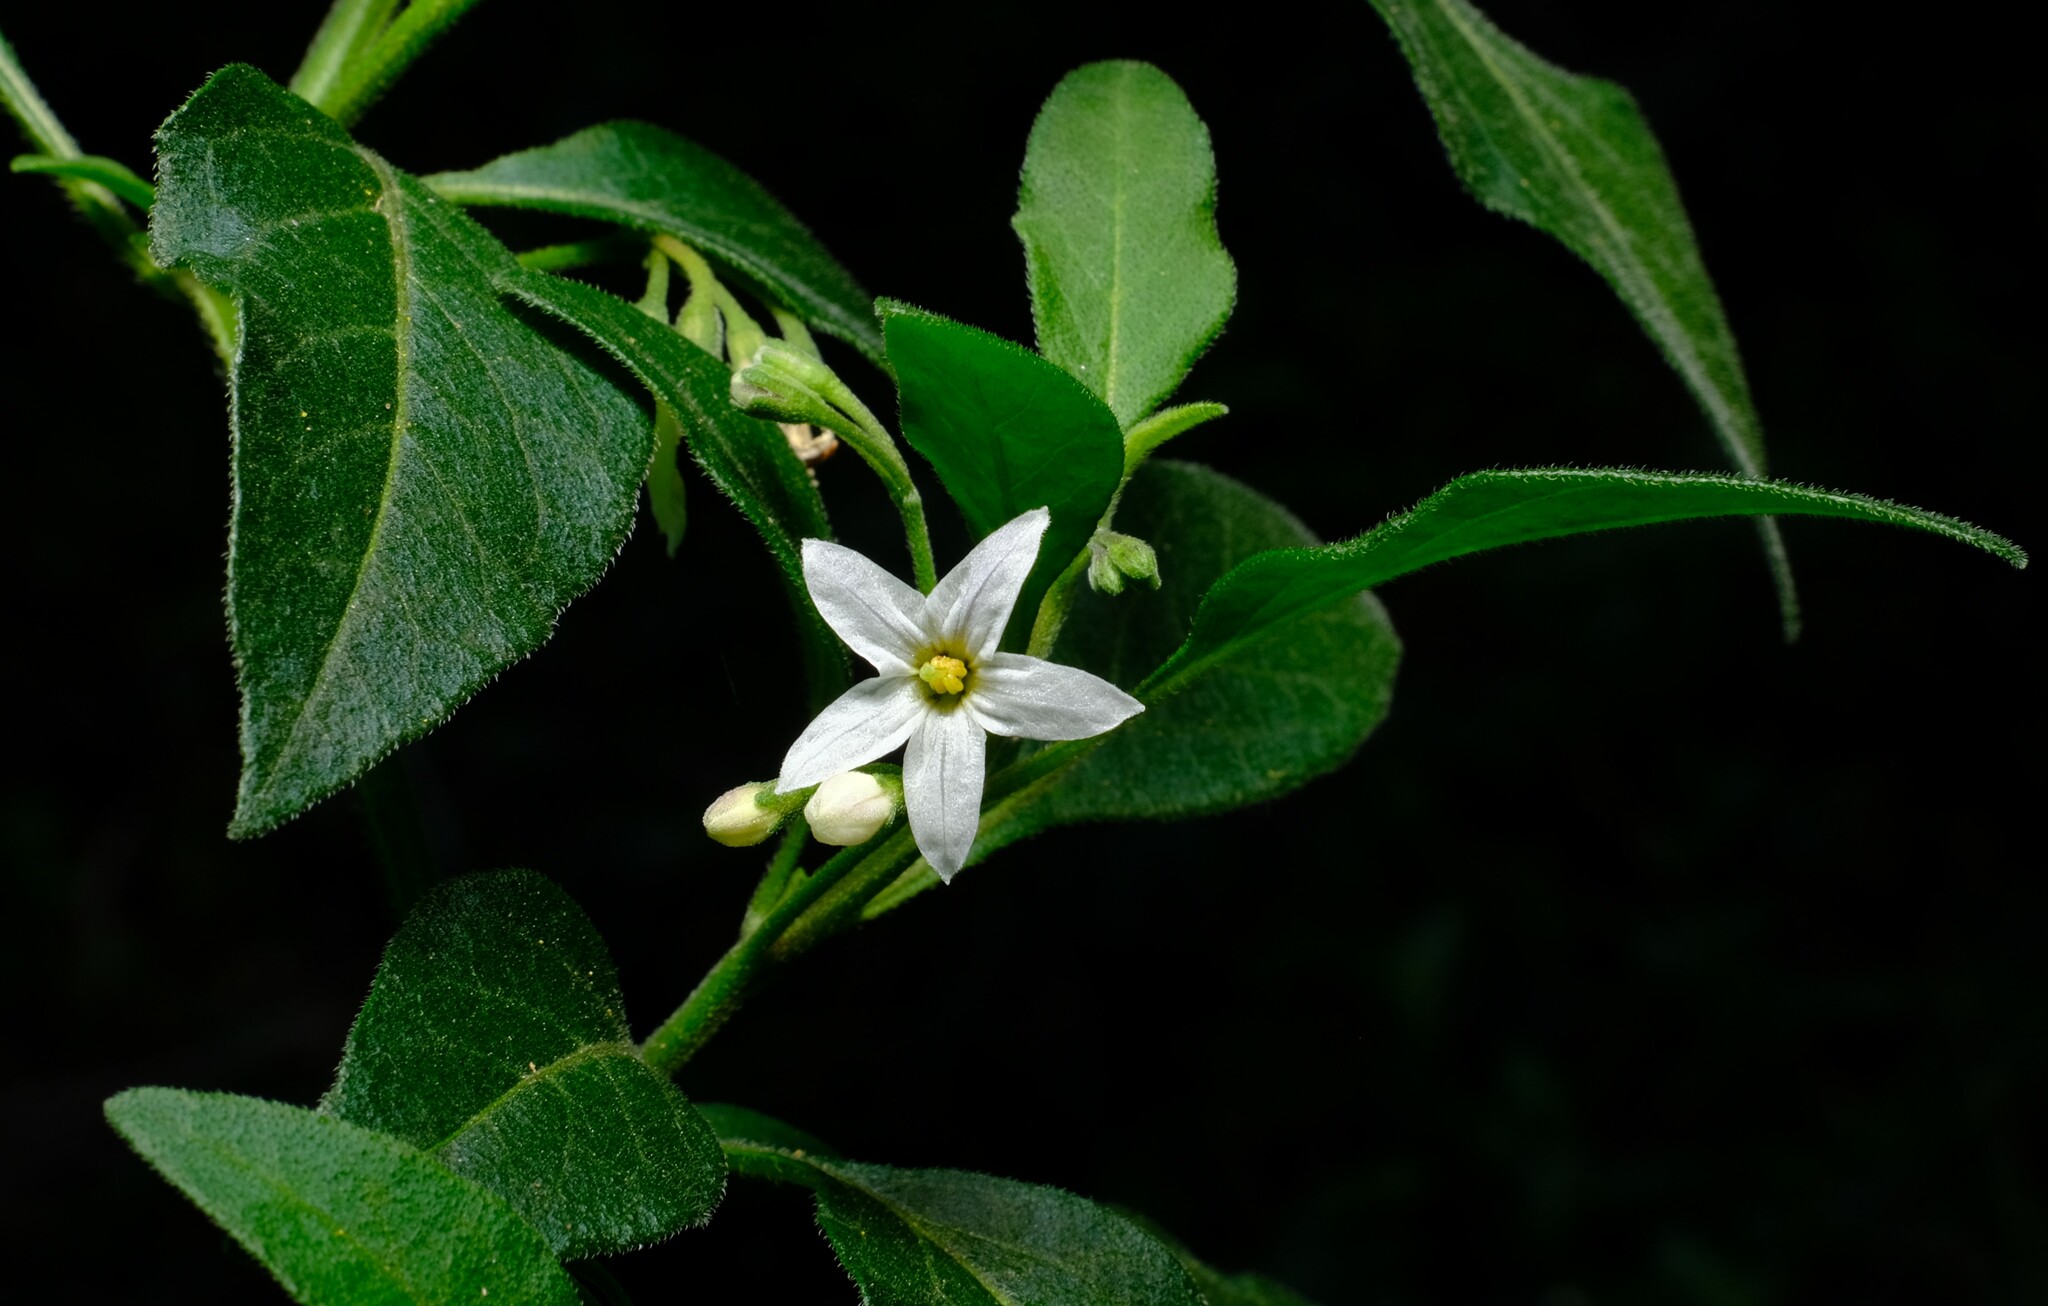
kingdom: Plantae
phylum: Tracheophyta
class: Magnoliopsida
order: Solanales
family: Solanaceae
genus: Solanum
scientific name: Solanum chenopodioides
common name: Tall nightshade
